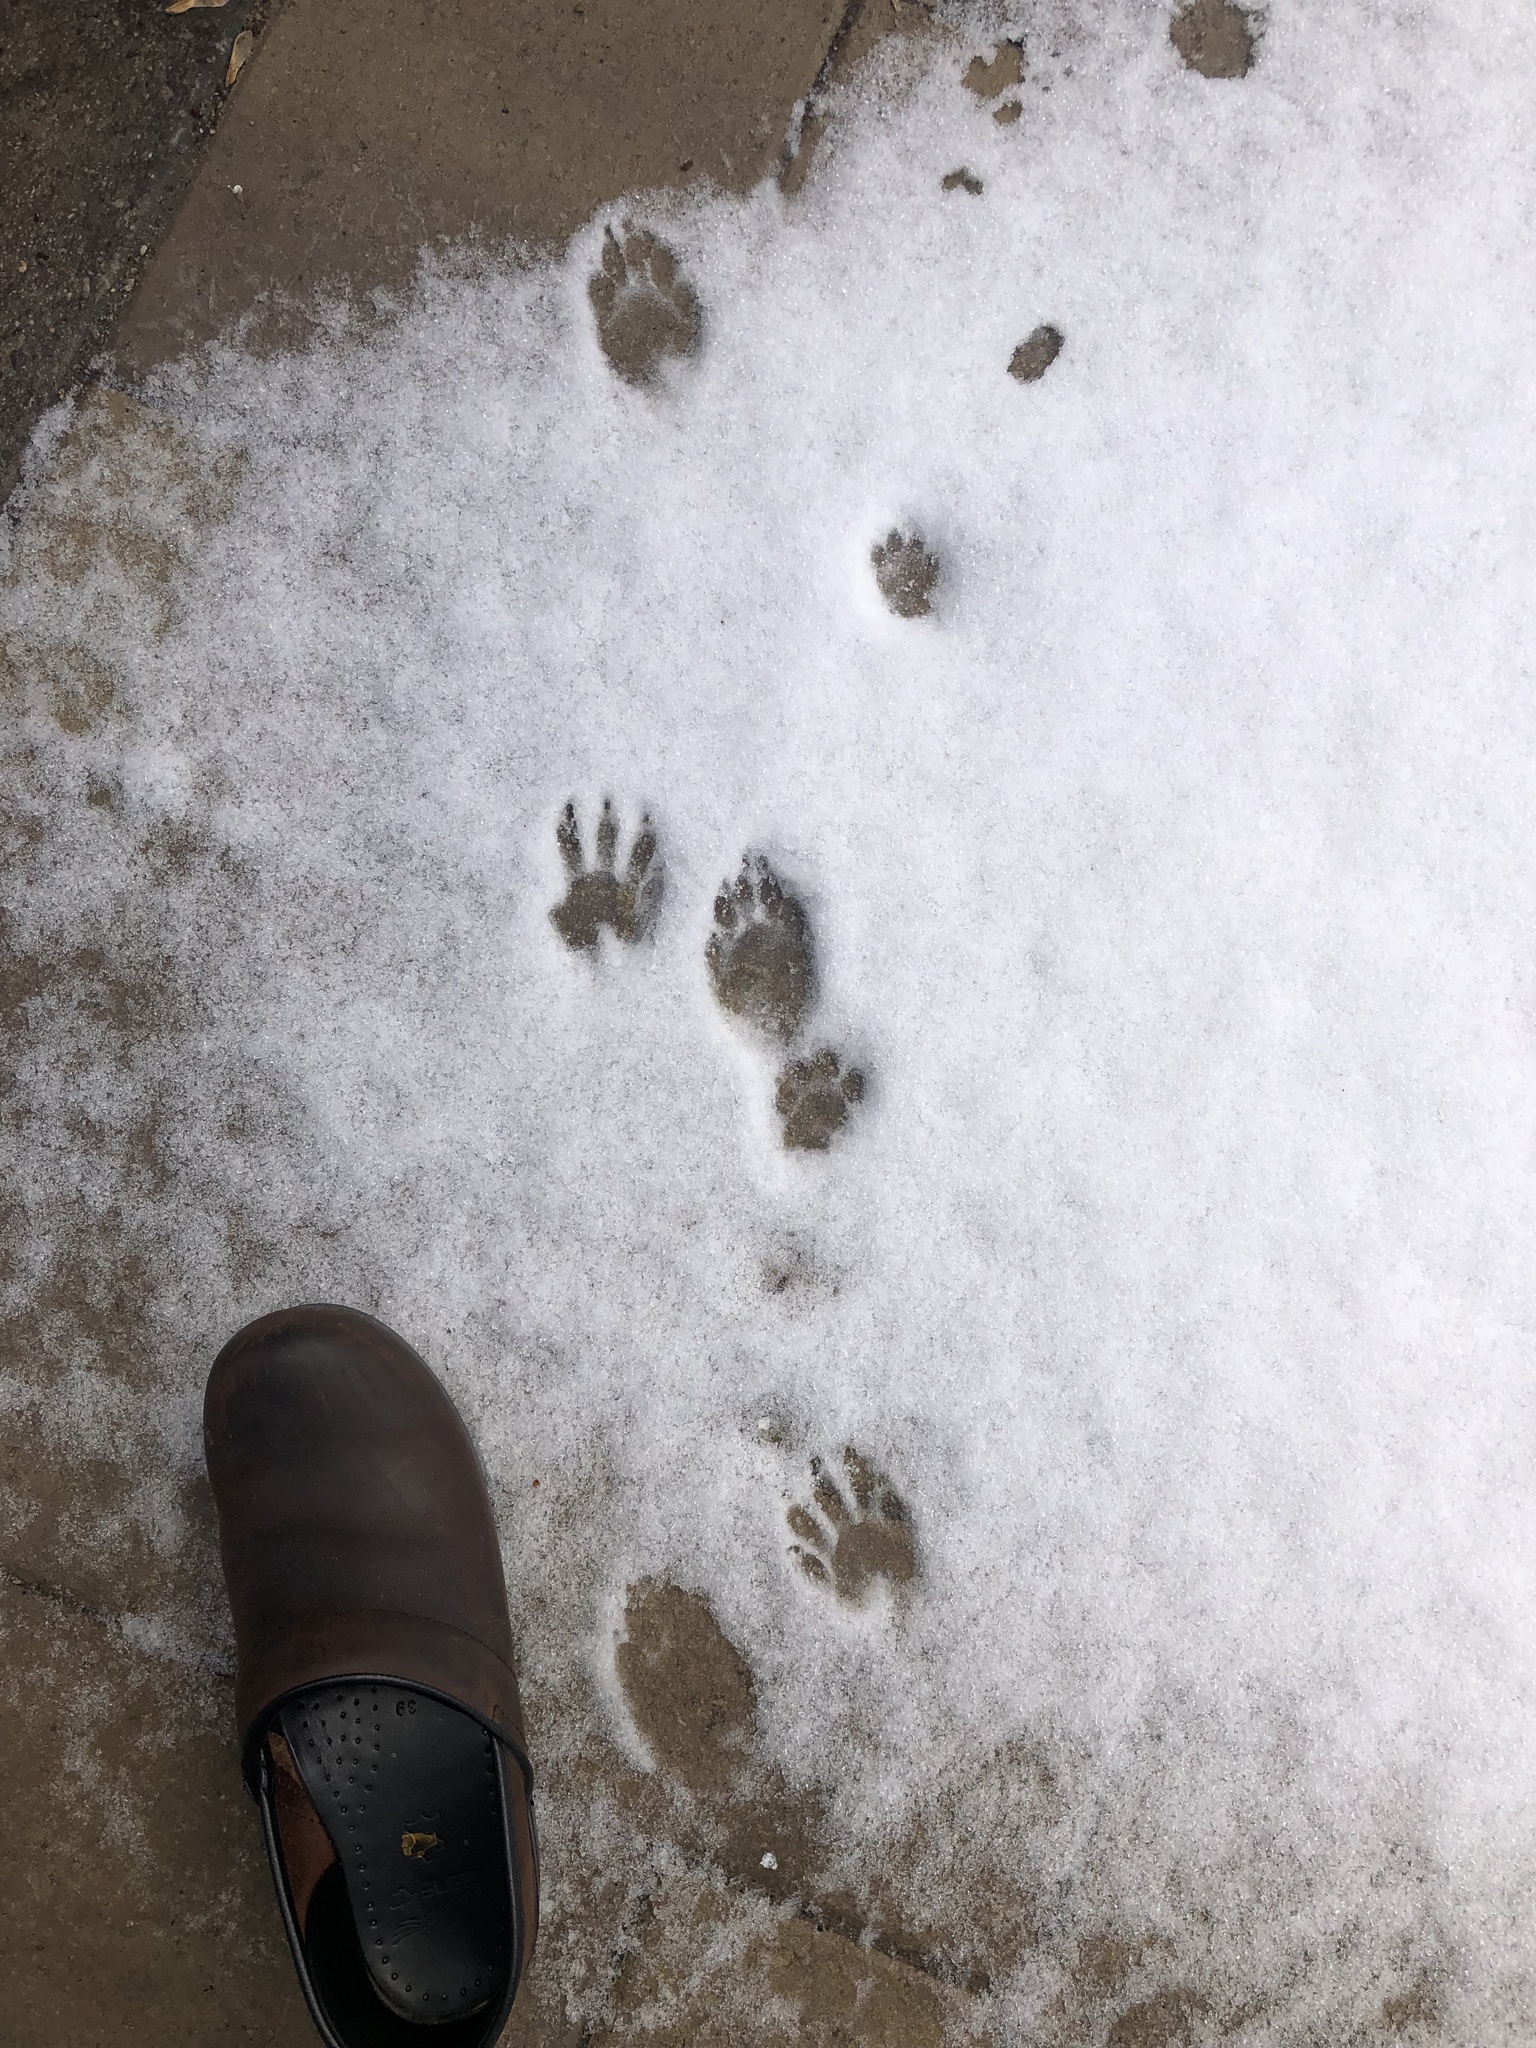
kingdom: Animalia
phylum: Chordata
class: Mammalia
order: Carnivora
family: Procyonidae
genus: Procyon
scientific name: Procyon lotor
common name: Raccoon
